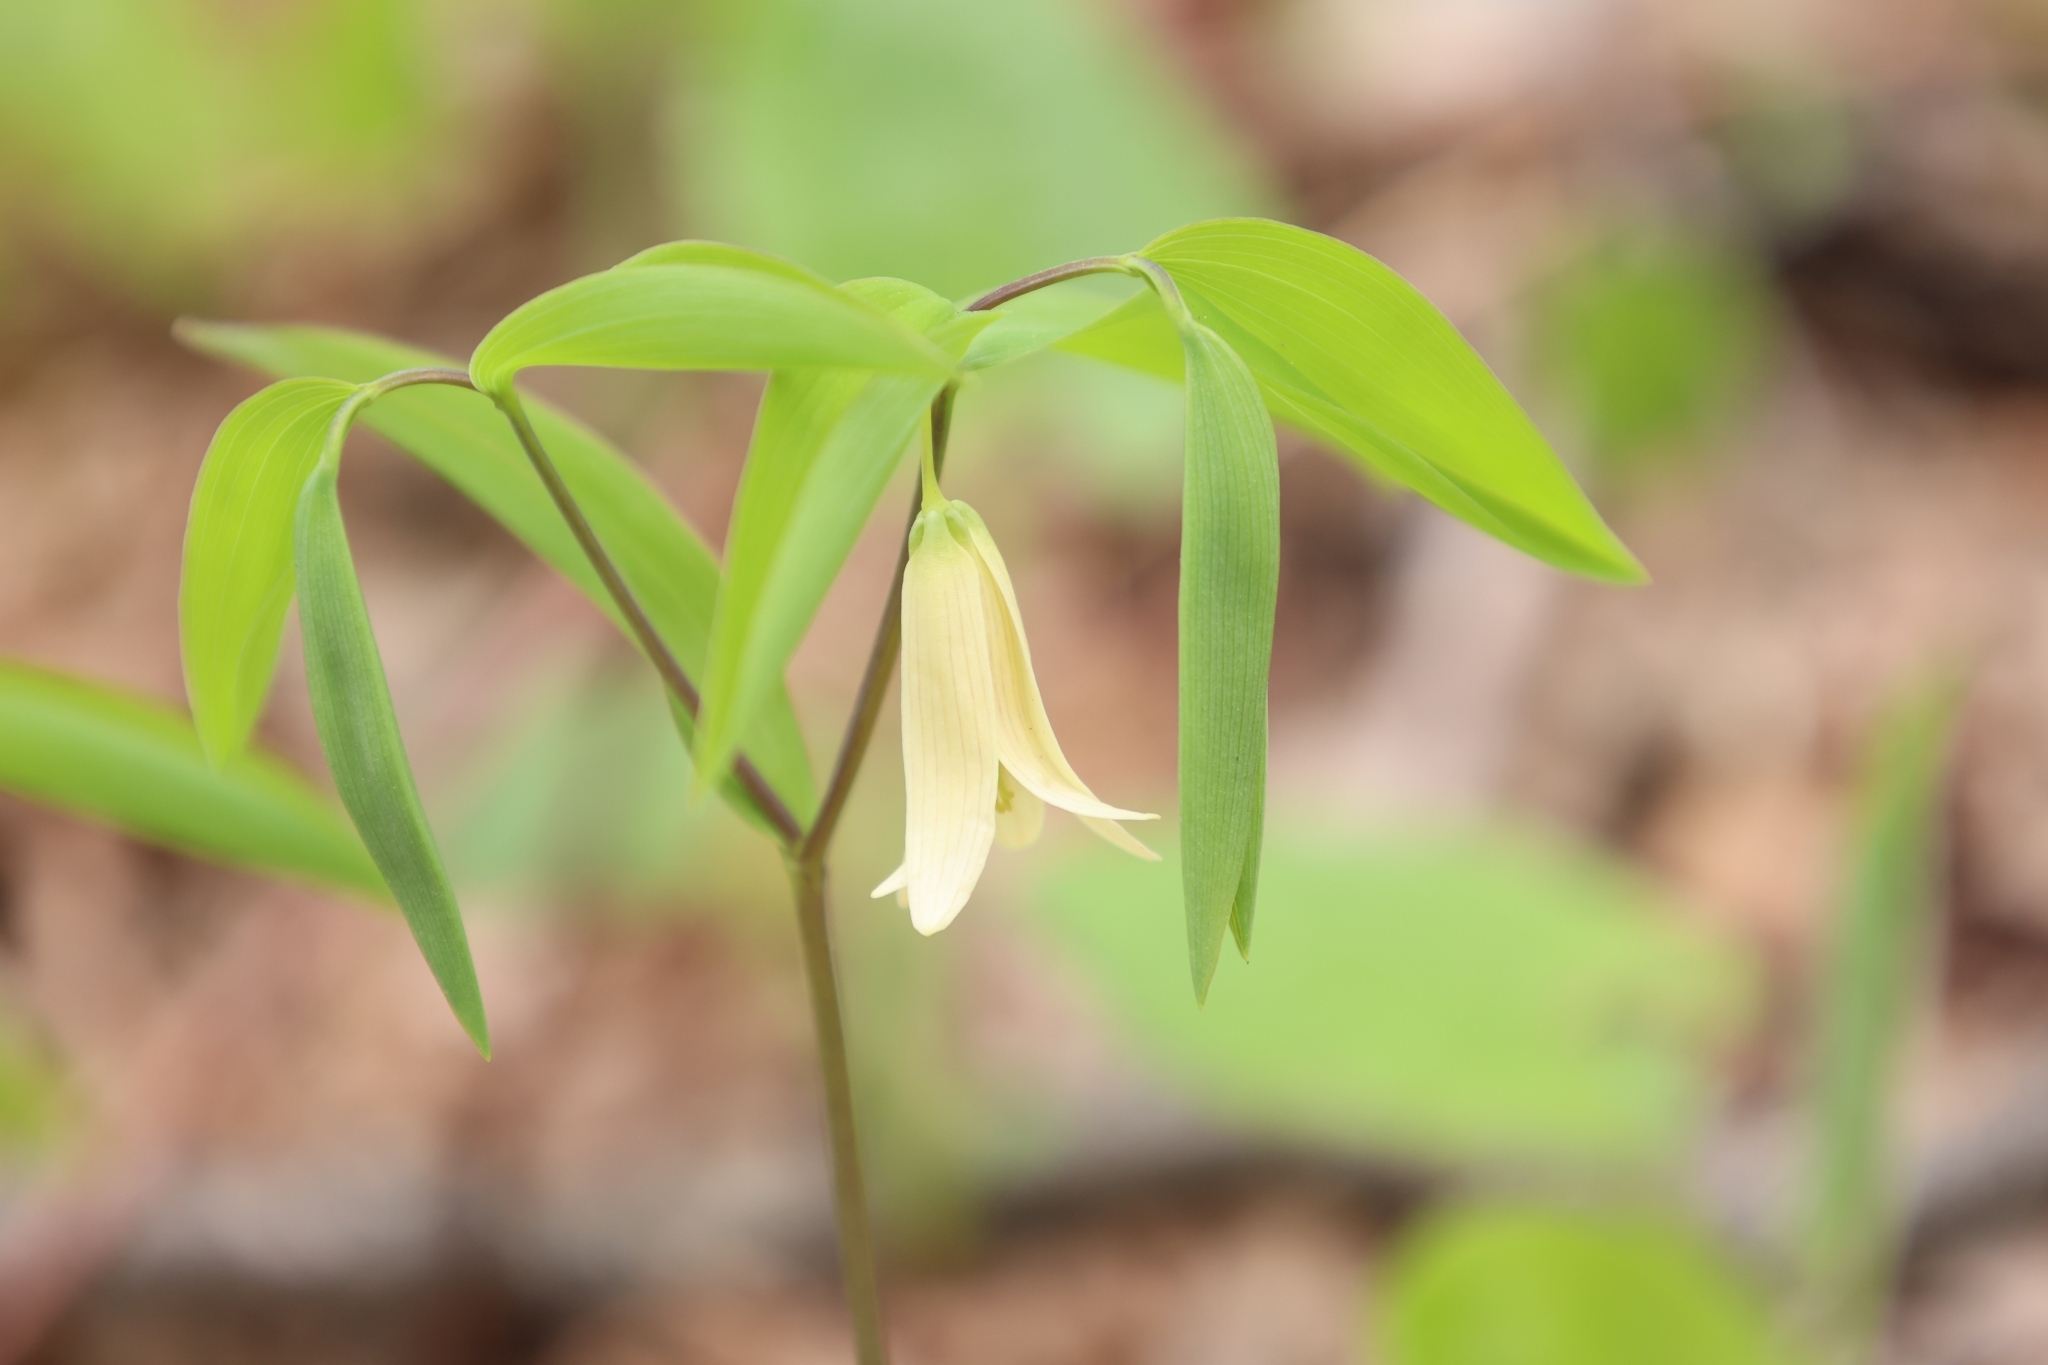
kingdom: Plantae
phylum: Tracheophyta
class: Liliopsida
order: Liliales
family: Colchicaceae
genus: Uvularia
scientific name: Uvularia sessilifolia
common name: Straw-lily
